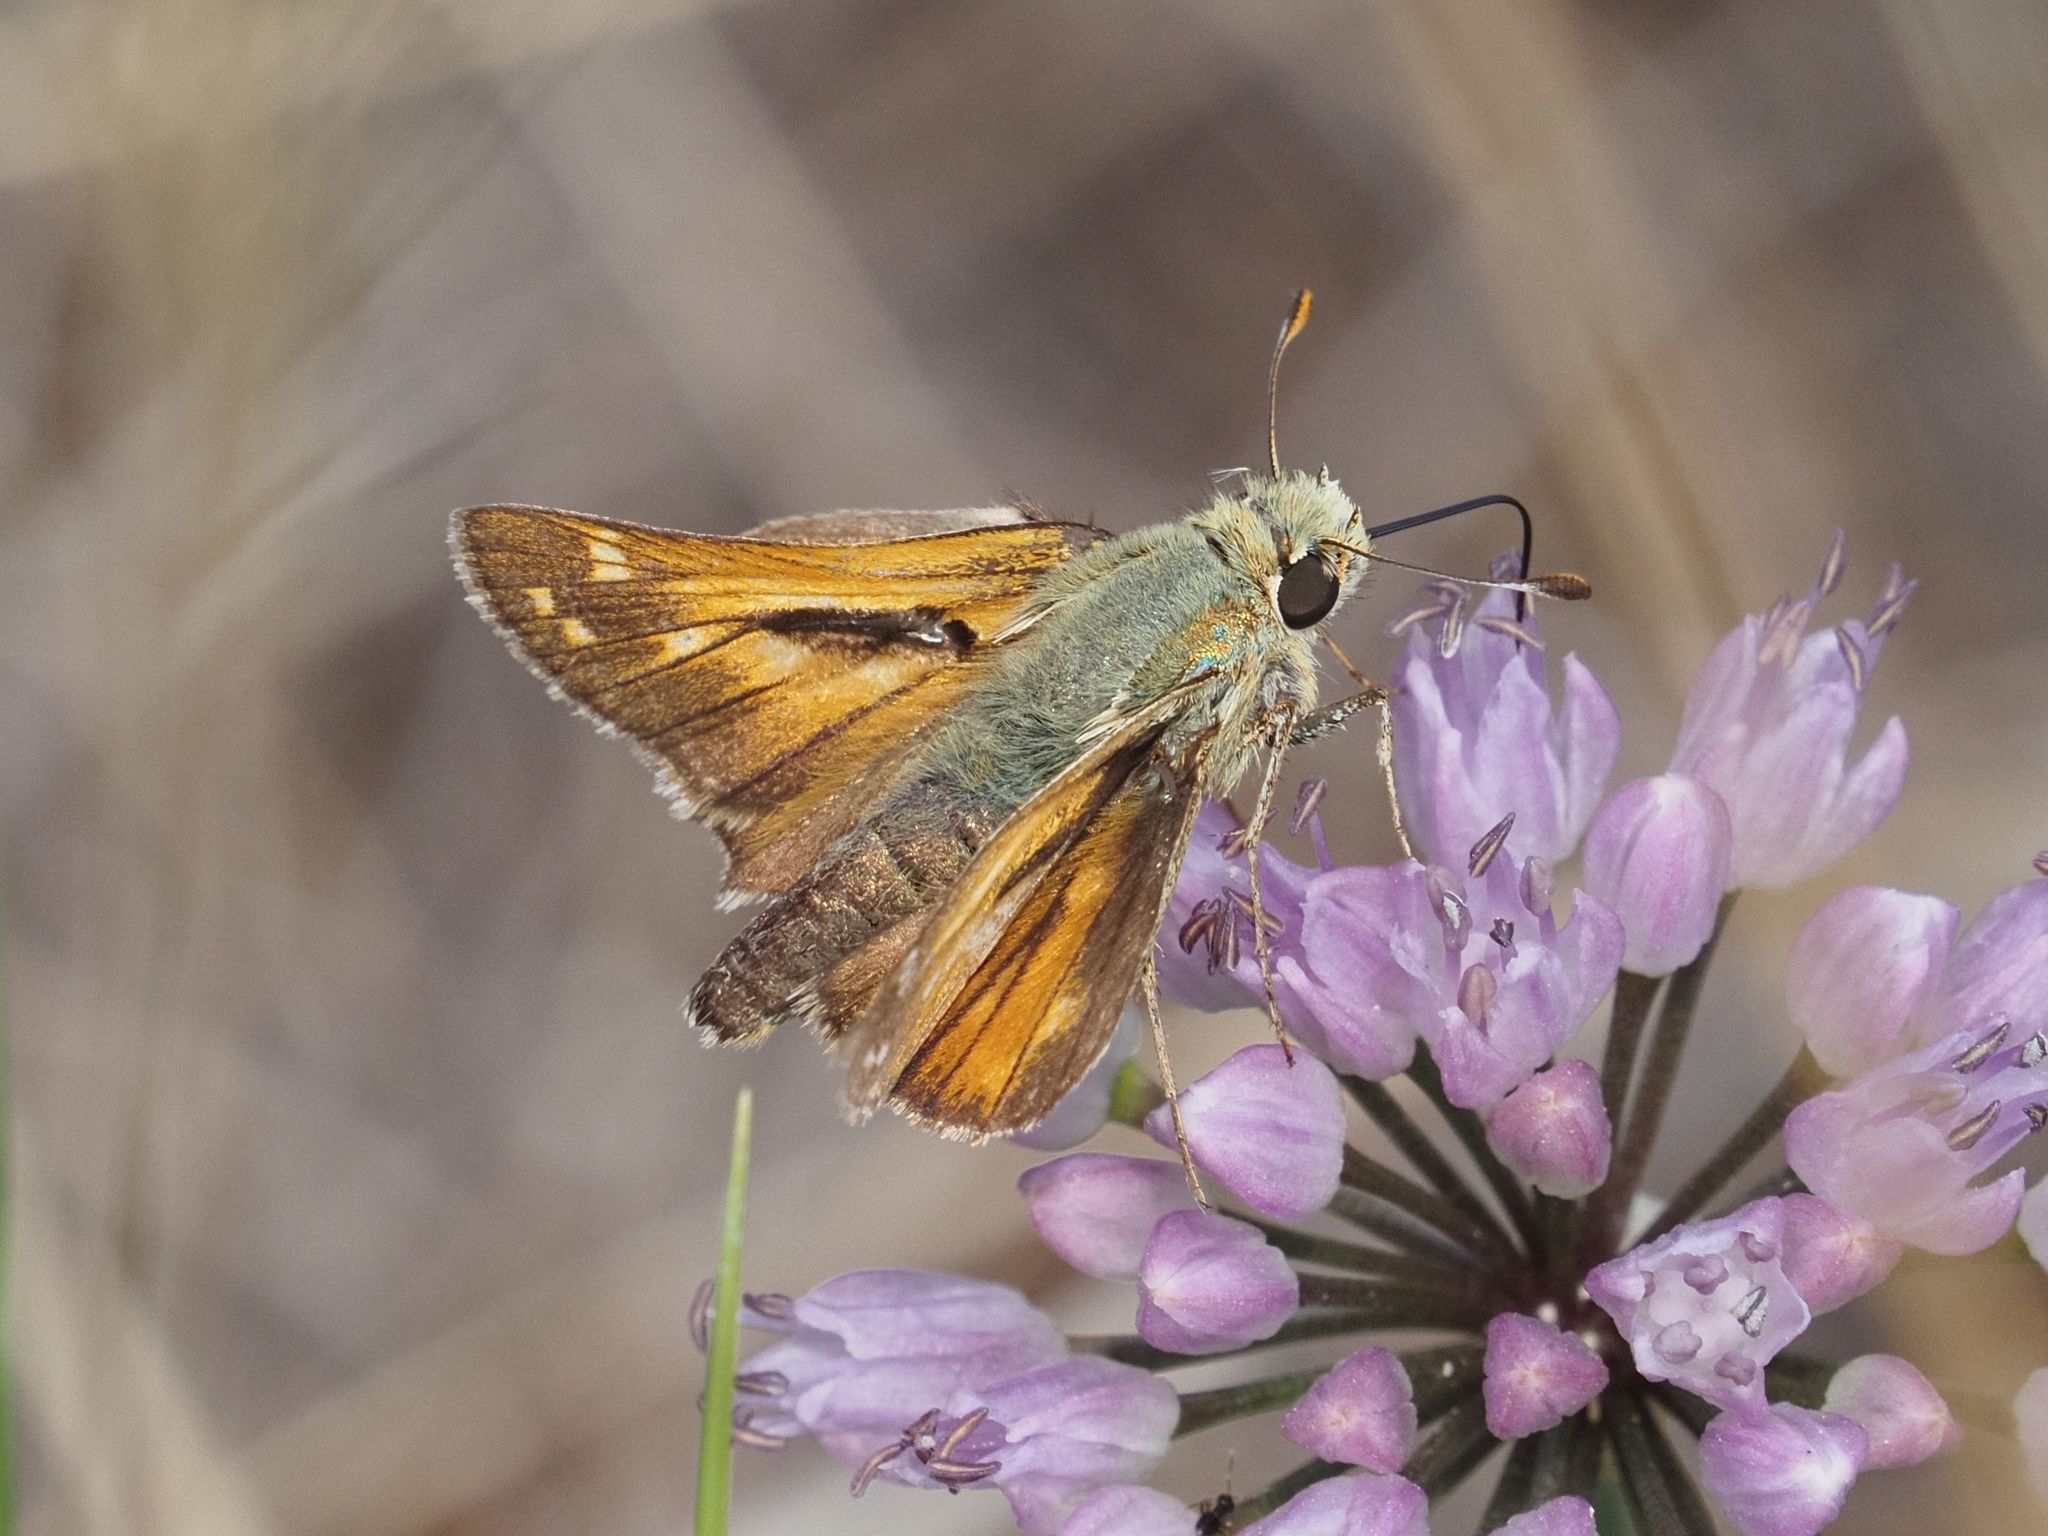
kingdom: Animalia
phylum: Arthropoda
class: Insecta
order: Lepidoptera
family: Hesperiidae
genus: Hesperia
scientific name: Hesperia comma
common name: Common branded skipper
